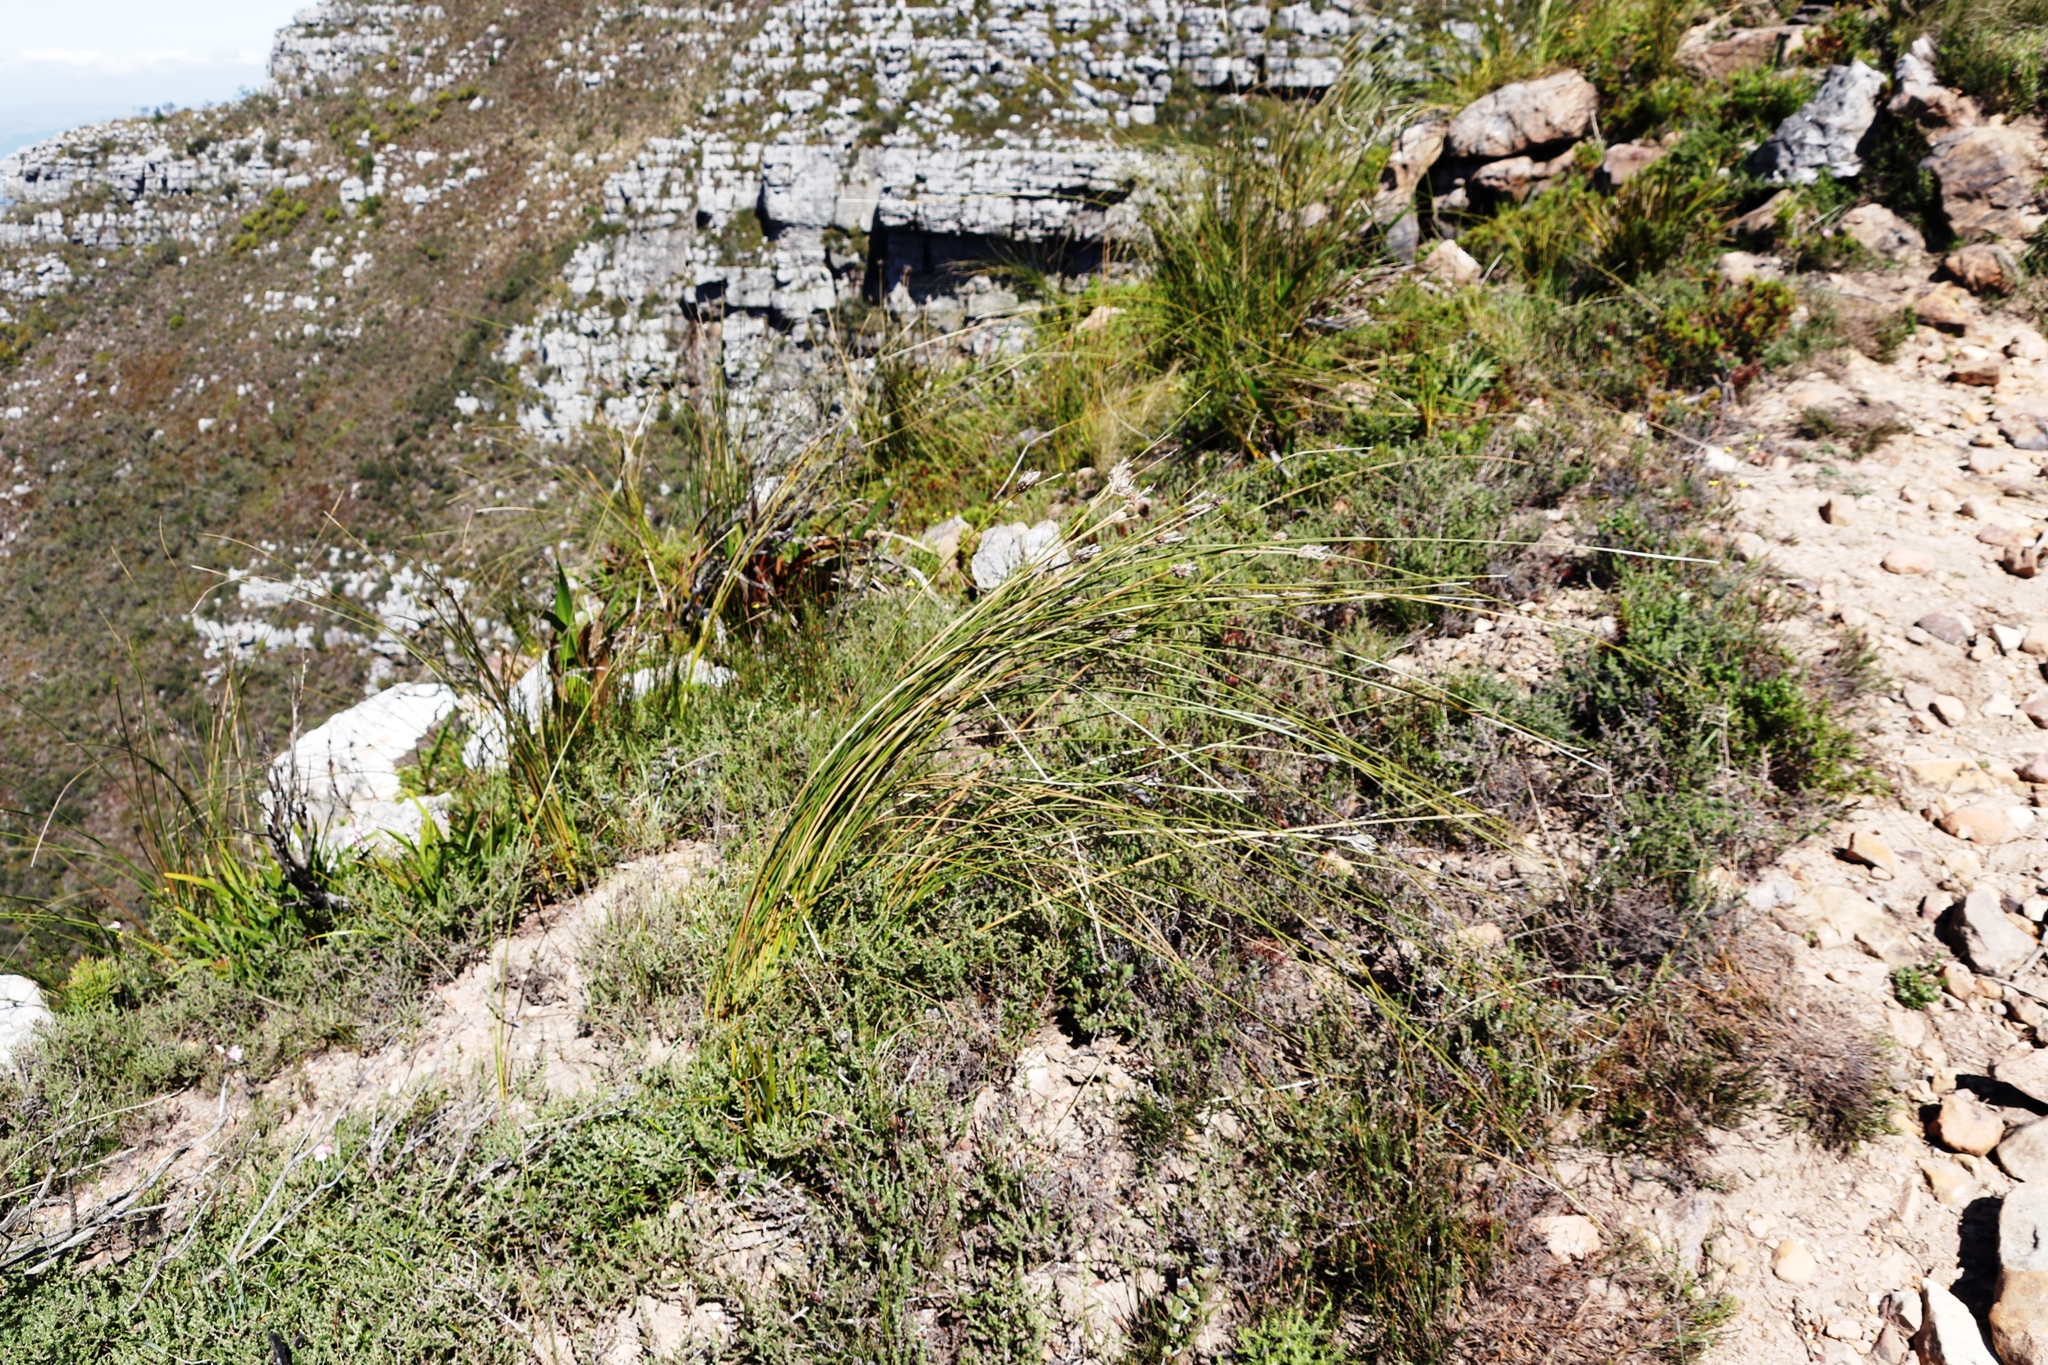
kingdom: Plantae
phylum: Tracheophyta
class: Liliopsida
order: Asparagales
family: Iridaceae
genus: Bobartia
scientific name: Bobartia indica
